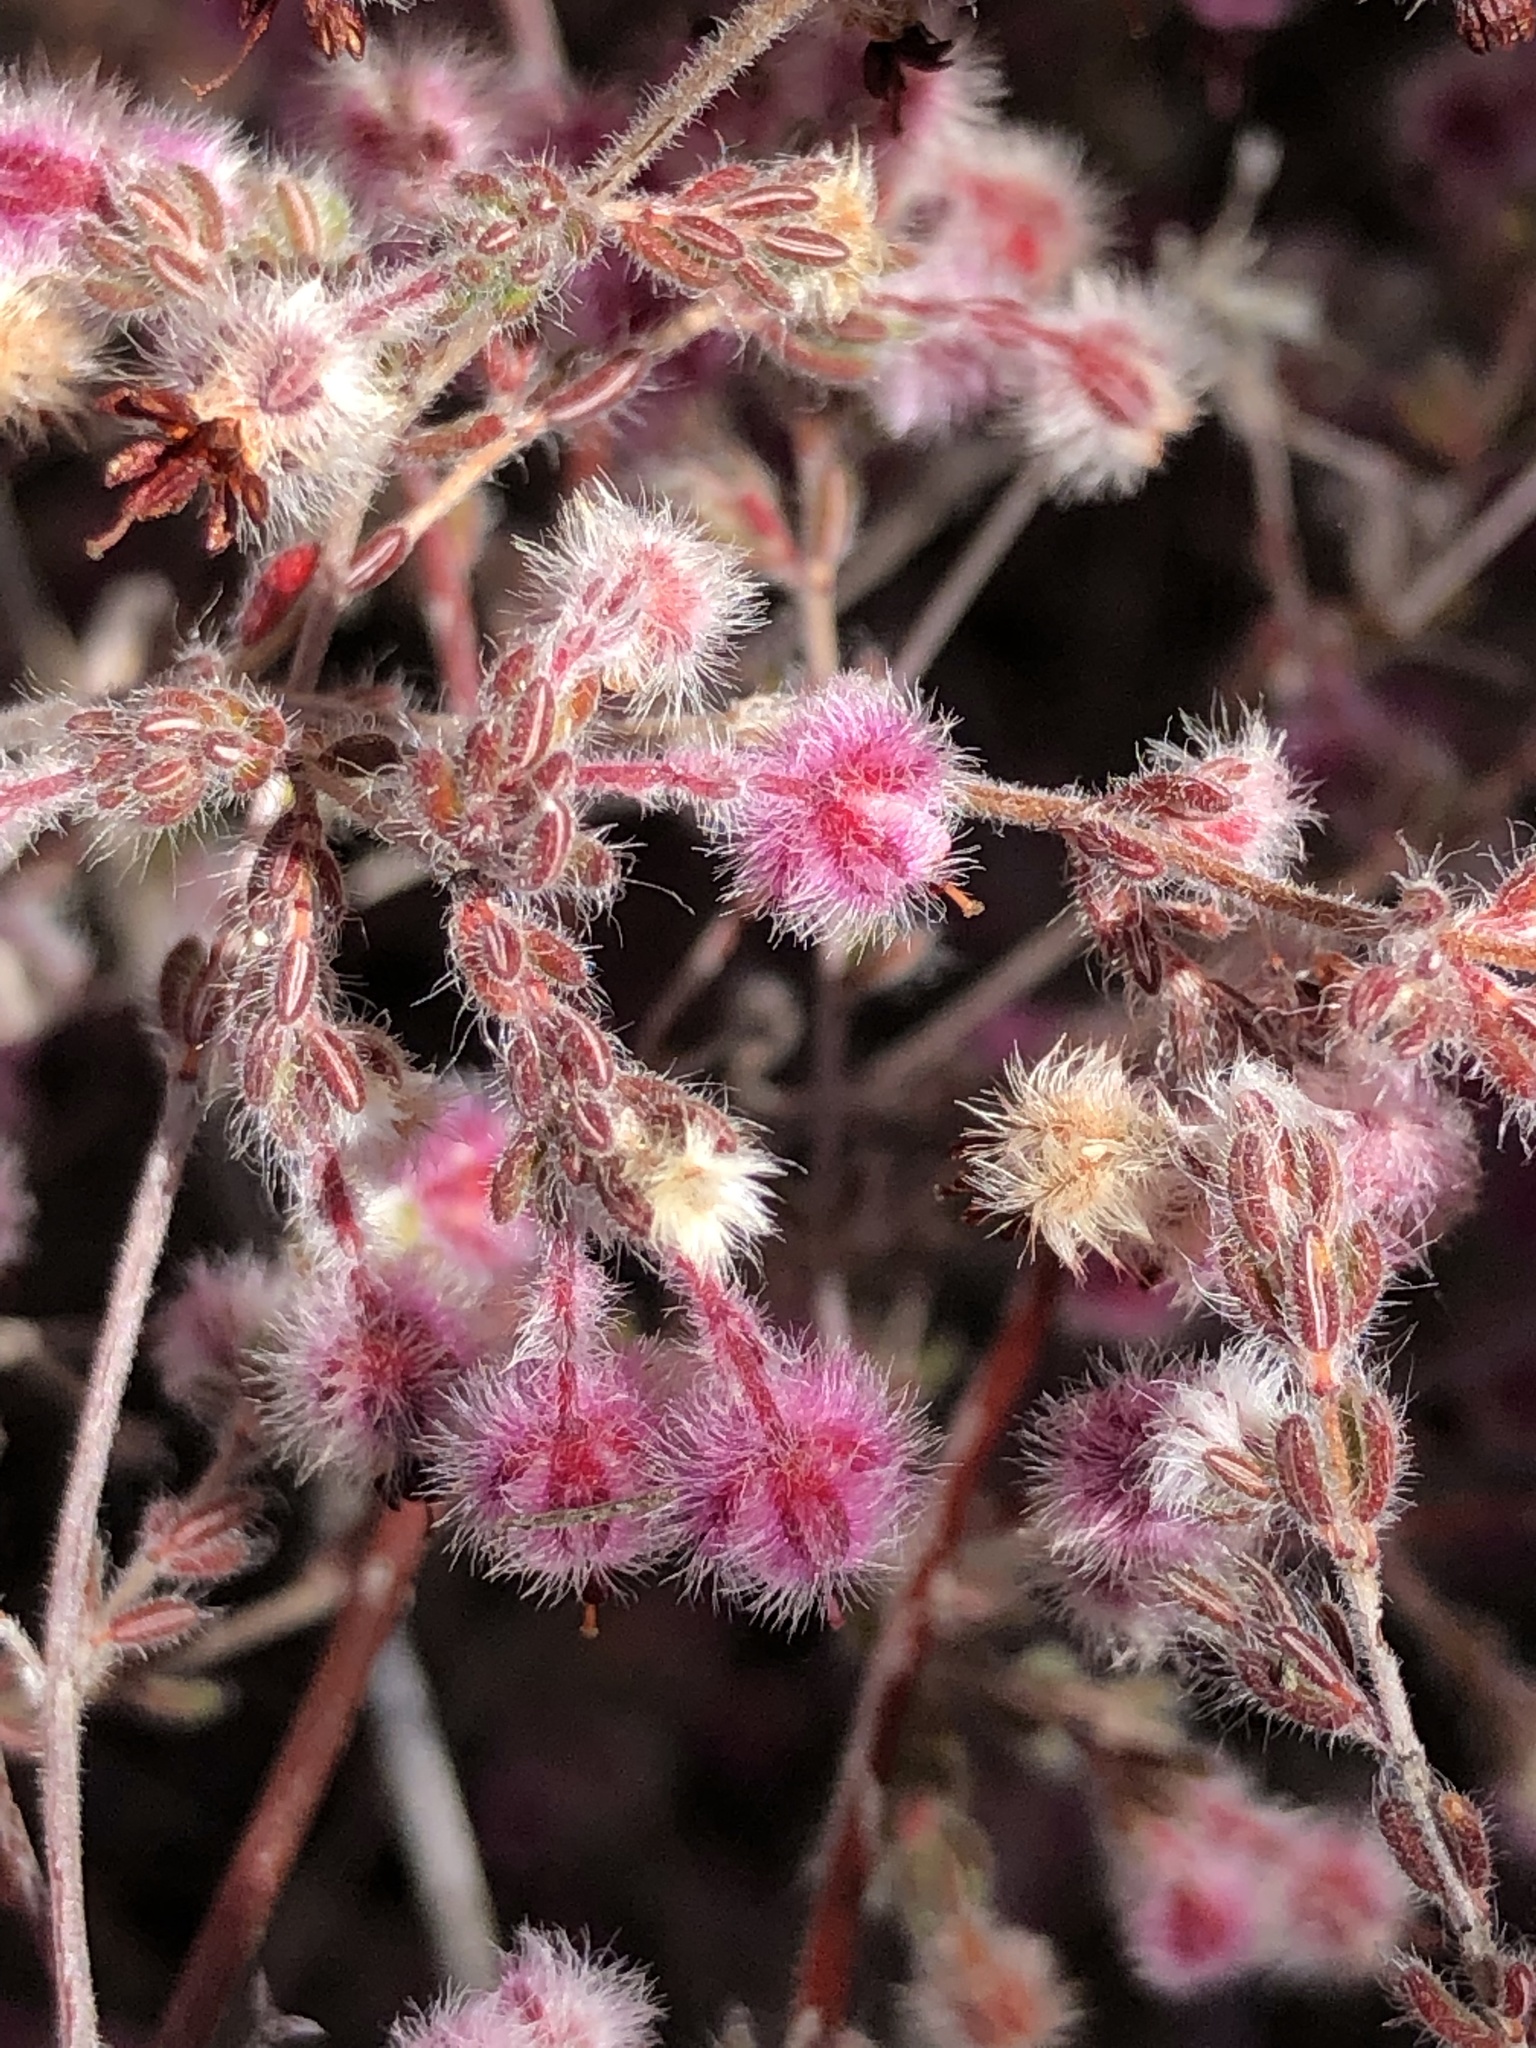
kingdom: Plantae
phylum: Tracheophyta
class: Magnoliopsida
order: Ericales
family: Ericaceae
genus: Erica
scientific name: Erica bruniades
